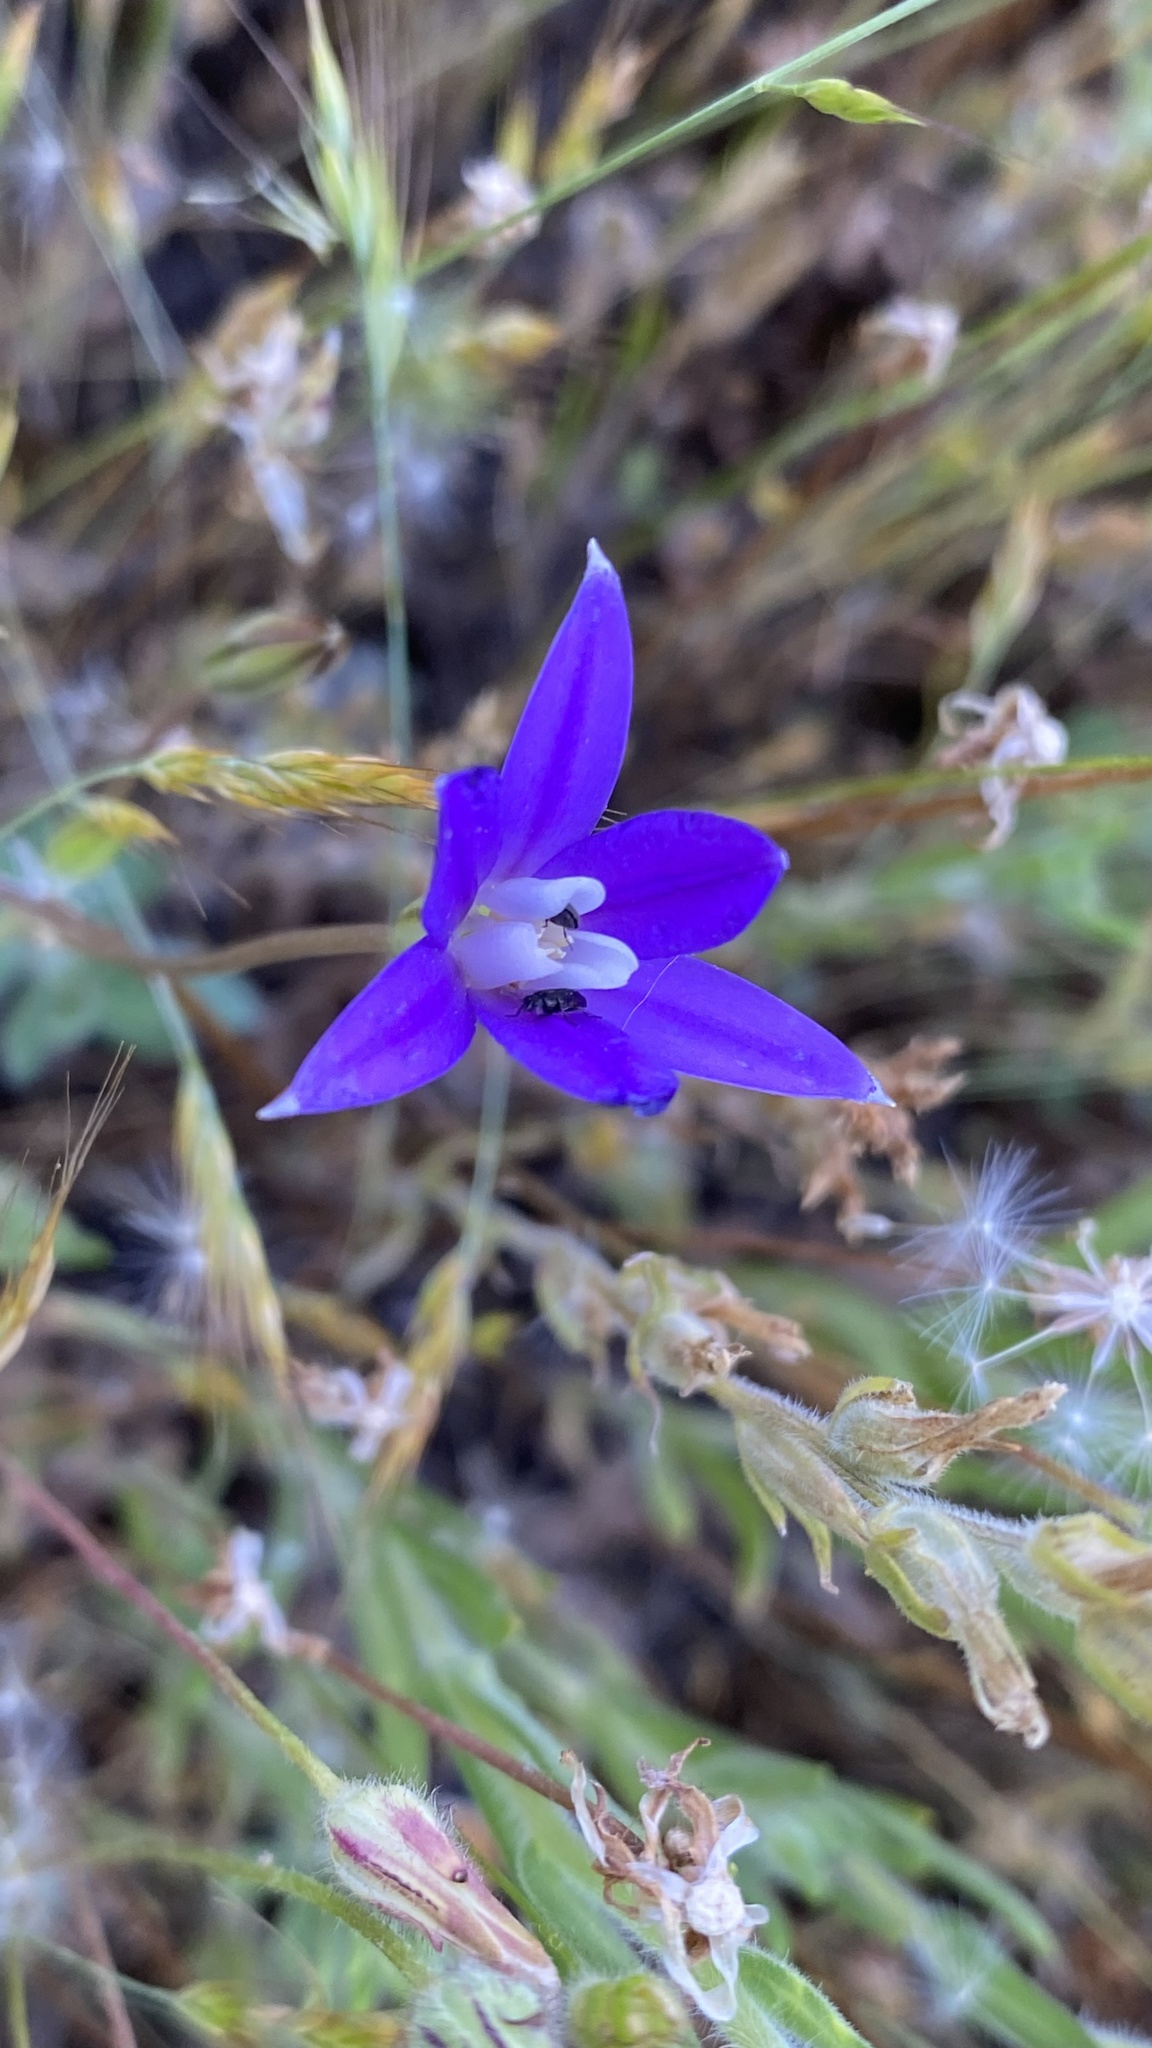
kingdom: Plantae
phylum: Tracheophyta
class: Liliopsida
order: Asparagales
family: Asparagaceae
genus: Brodiaea
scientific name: Brodiaea insignis
